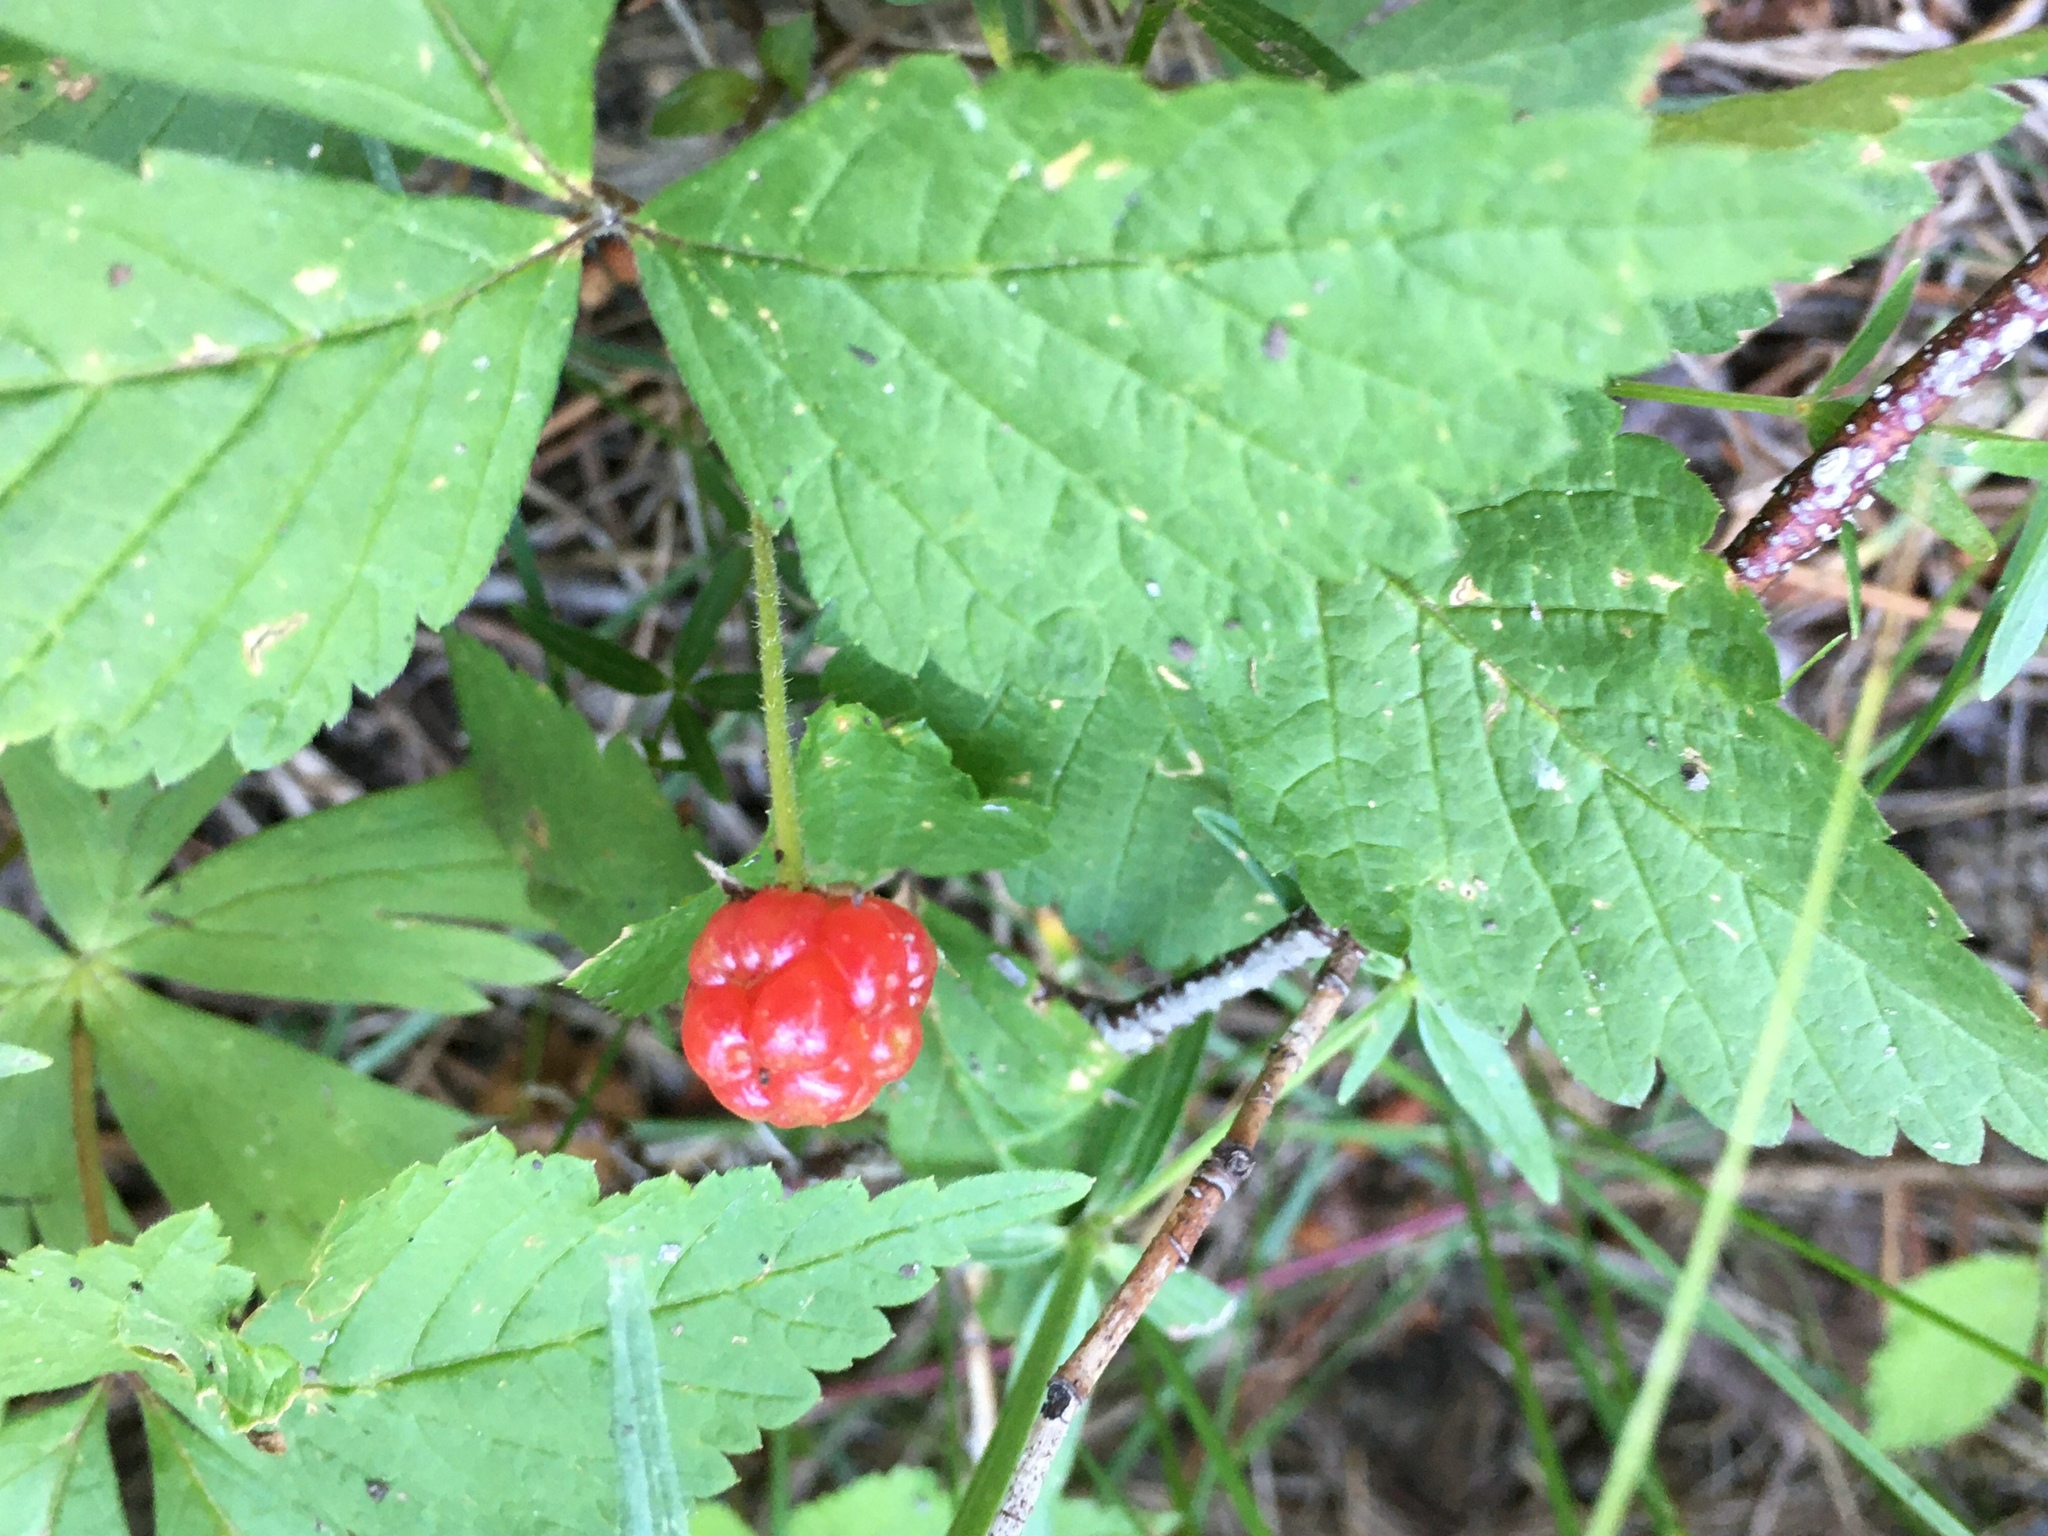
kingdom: Plantae
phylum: Tracheophyta
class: Magnoliopsida
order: Rosales
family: Rosaceae
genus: Rubus
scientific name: Rubus idaeus
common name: Raspberry
